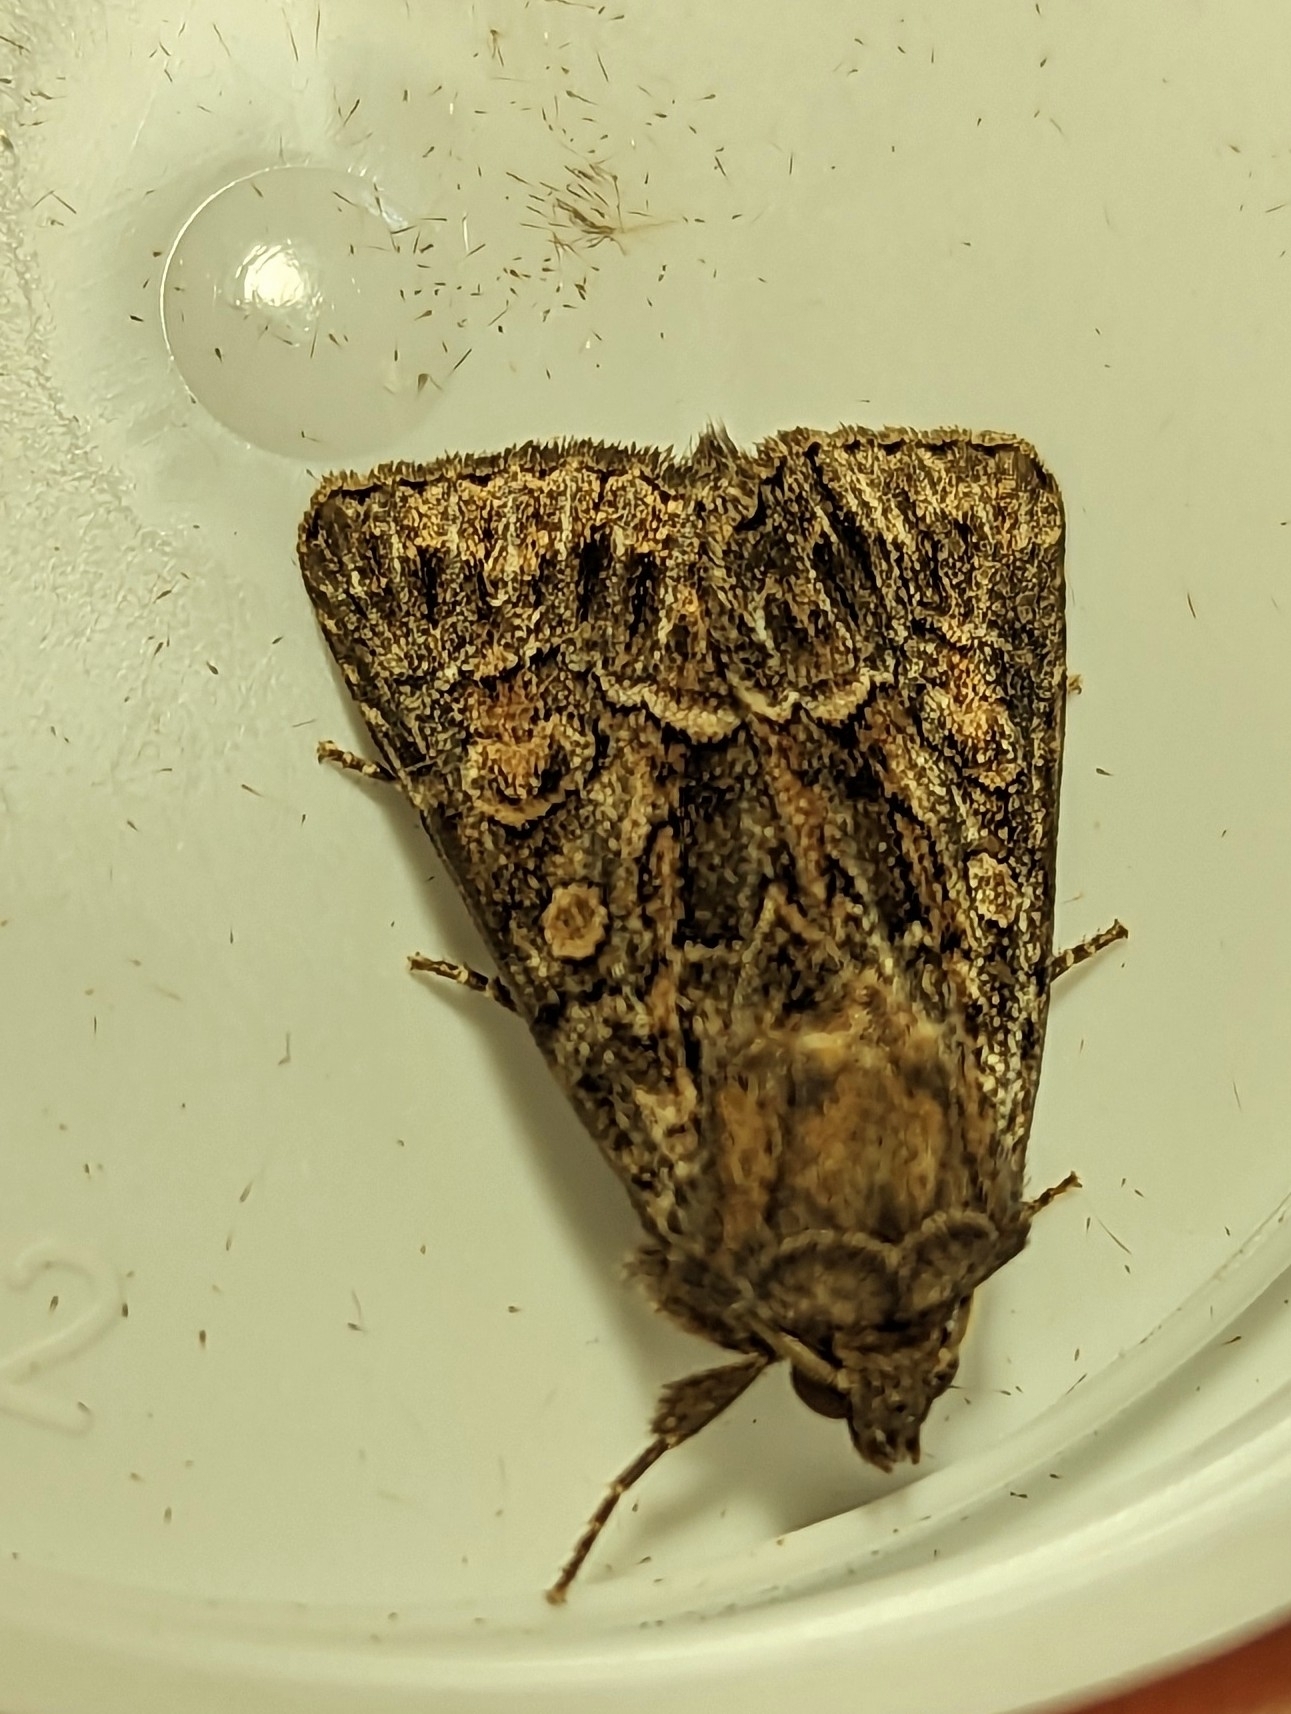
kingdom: Animalia
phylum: Arthropoda
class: Insecta
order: Lepidoptera
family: Noctuidae
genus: Thalpophila
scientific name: Thalpophila matura
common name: Straw underwing
